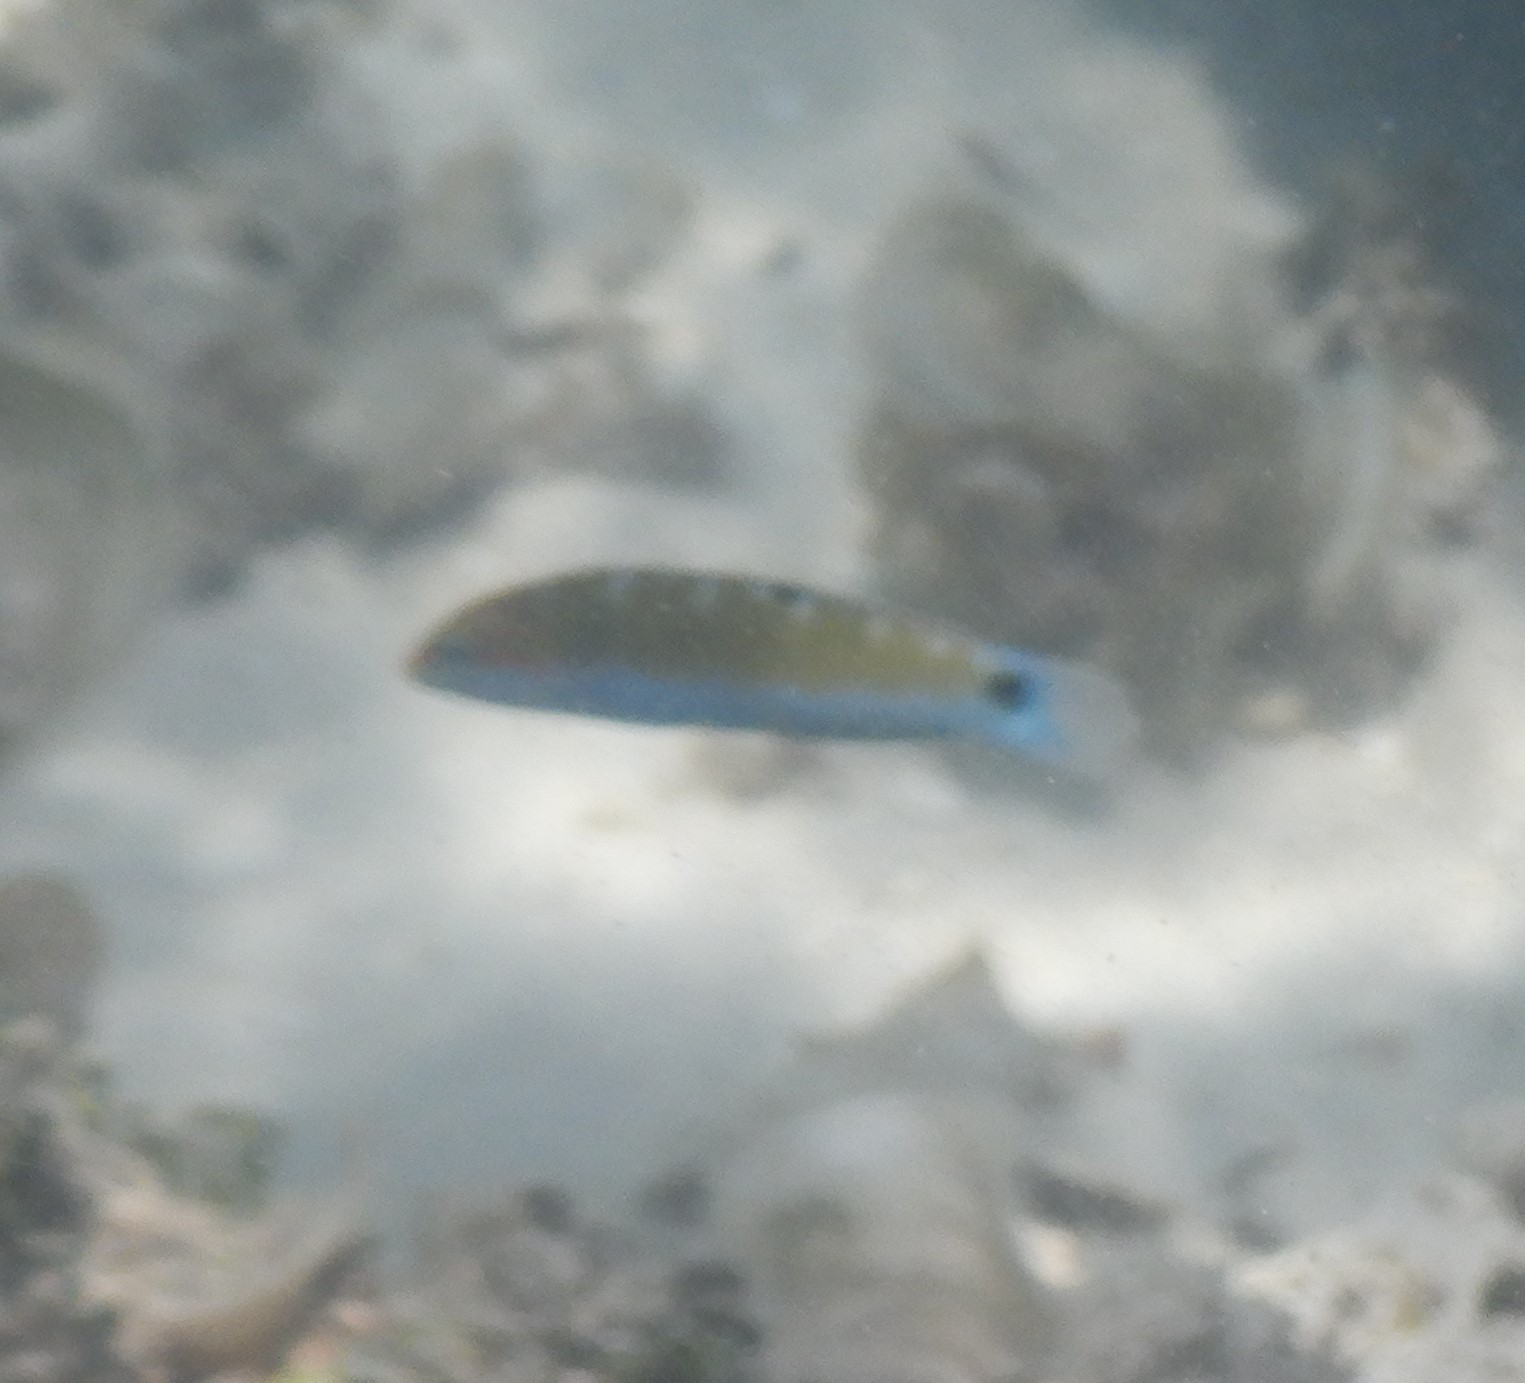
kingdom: Animalia
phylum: Chordata
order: Perciformes
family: Labridae
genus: Thalassoma
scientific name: Thalassoma lunare
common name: Blue wrasse
